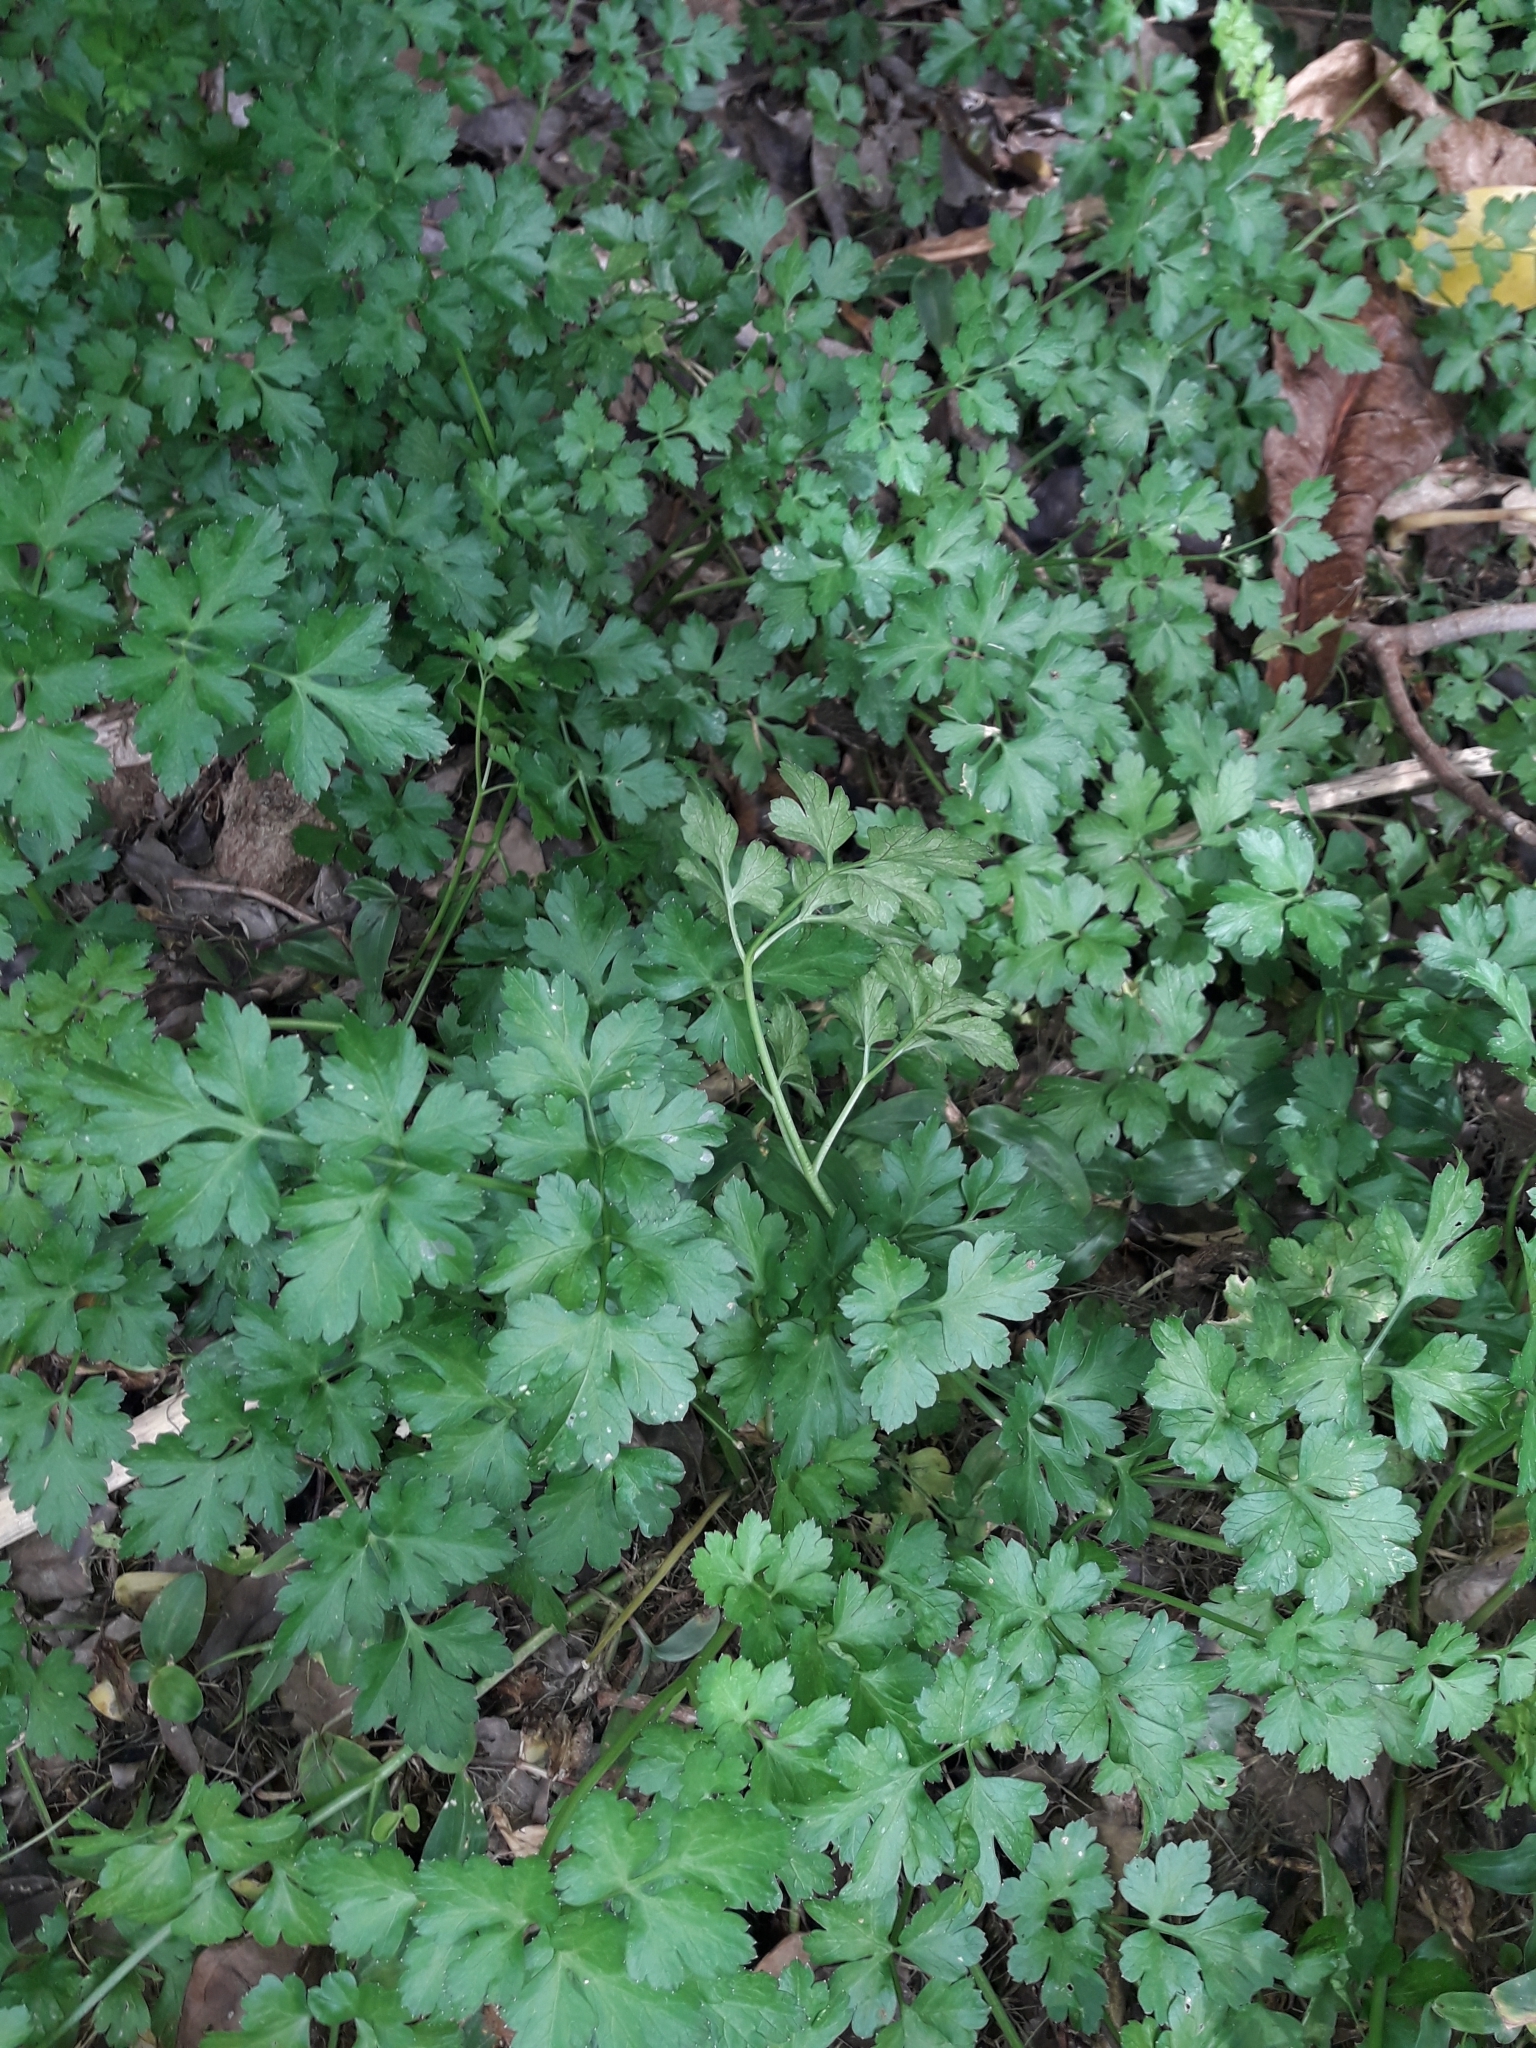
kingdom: Plantae
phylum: Tracheophyta
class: Magnoliopsida
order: Apiales
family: Apiaceae
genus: Petroselinum
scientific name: Petroselinum crispum
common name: Parsley
